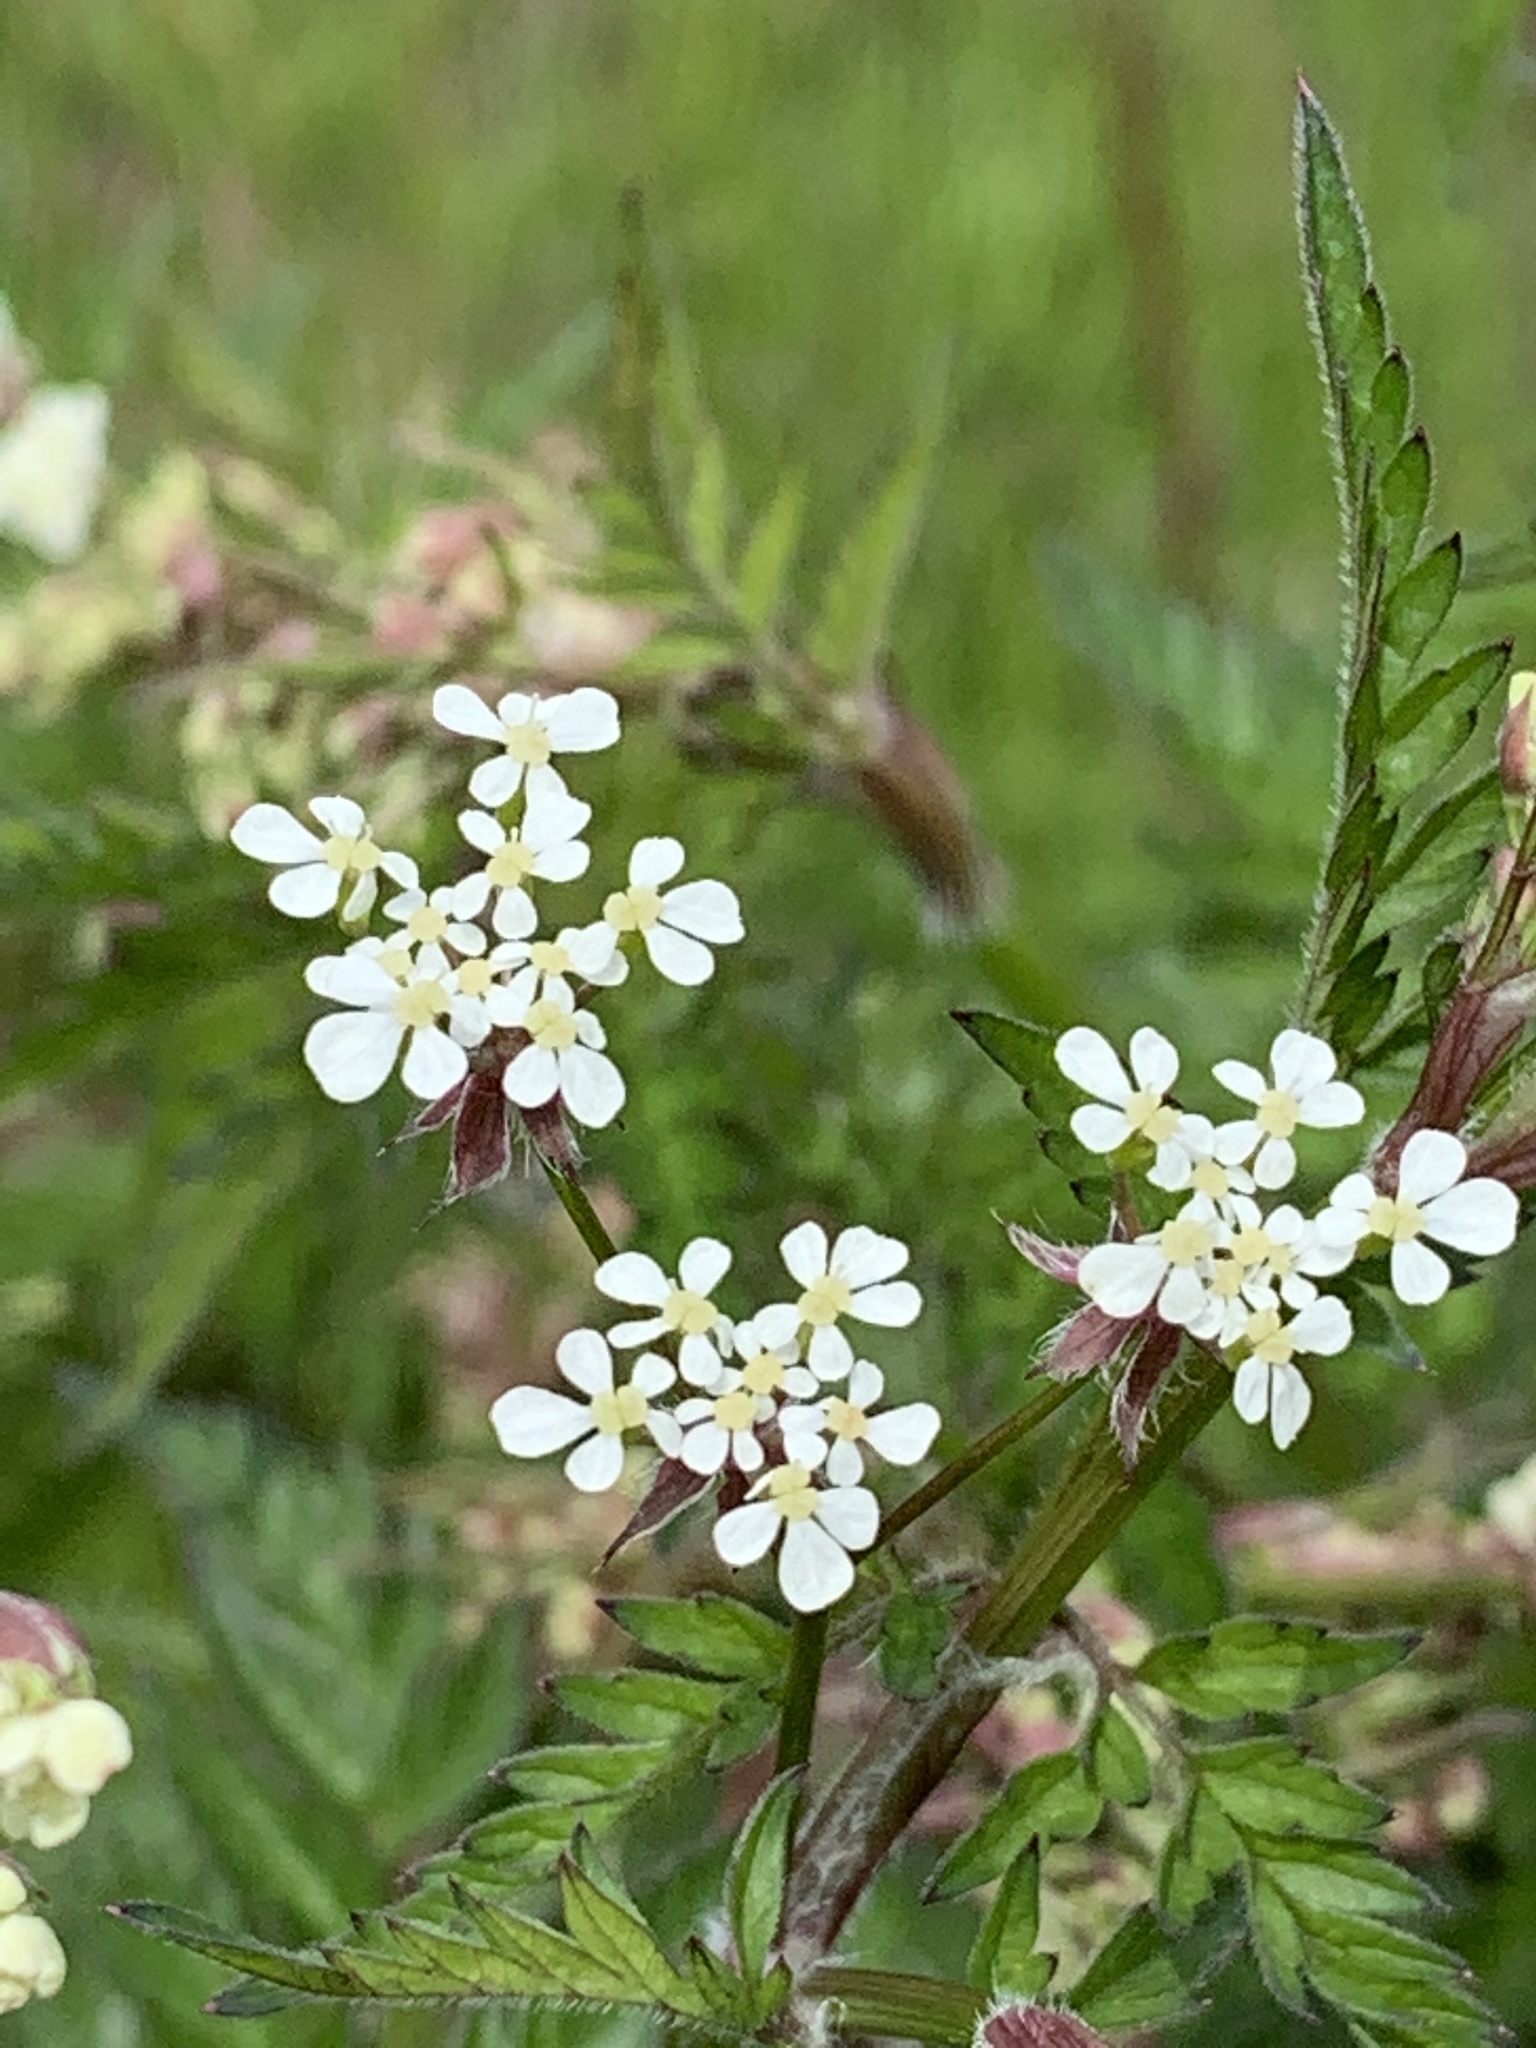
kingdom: Plantae
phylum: Tracheophyta
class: Magnoliopsida
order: Apiales
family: Apiaceae
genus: Anthriscus
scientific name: Anthriscus sylvestris
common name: Cow parsley
